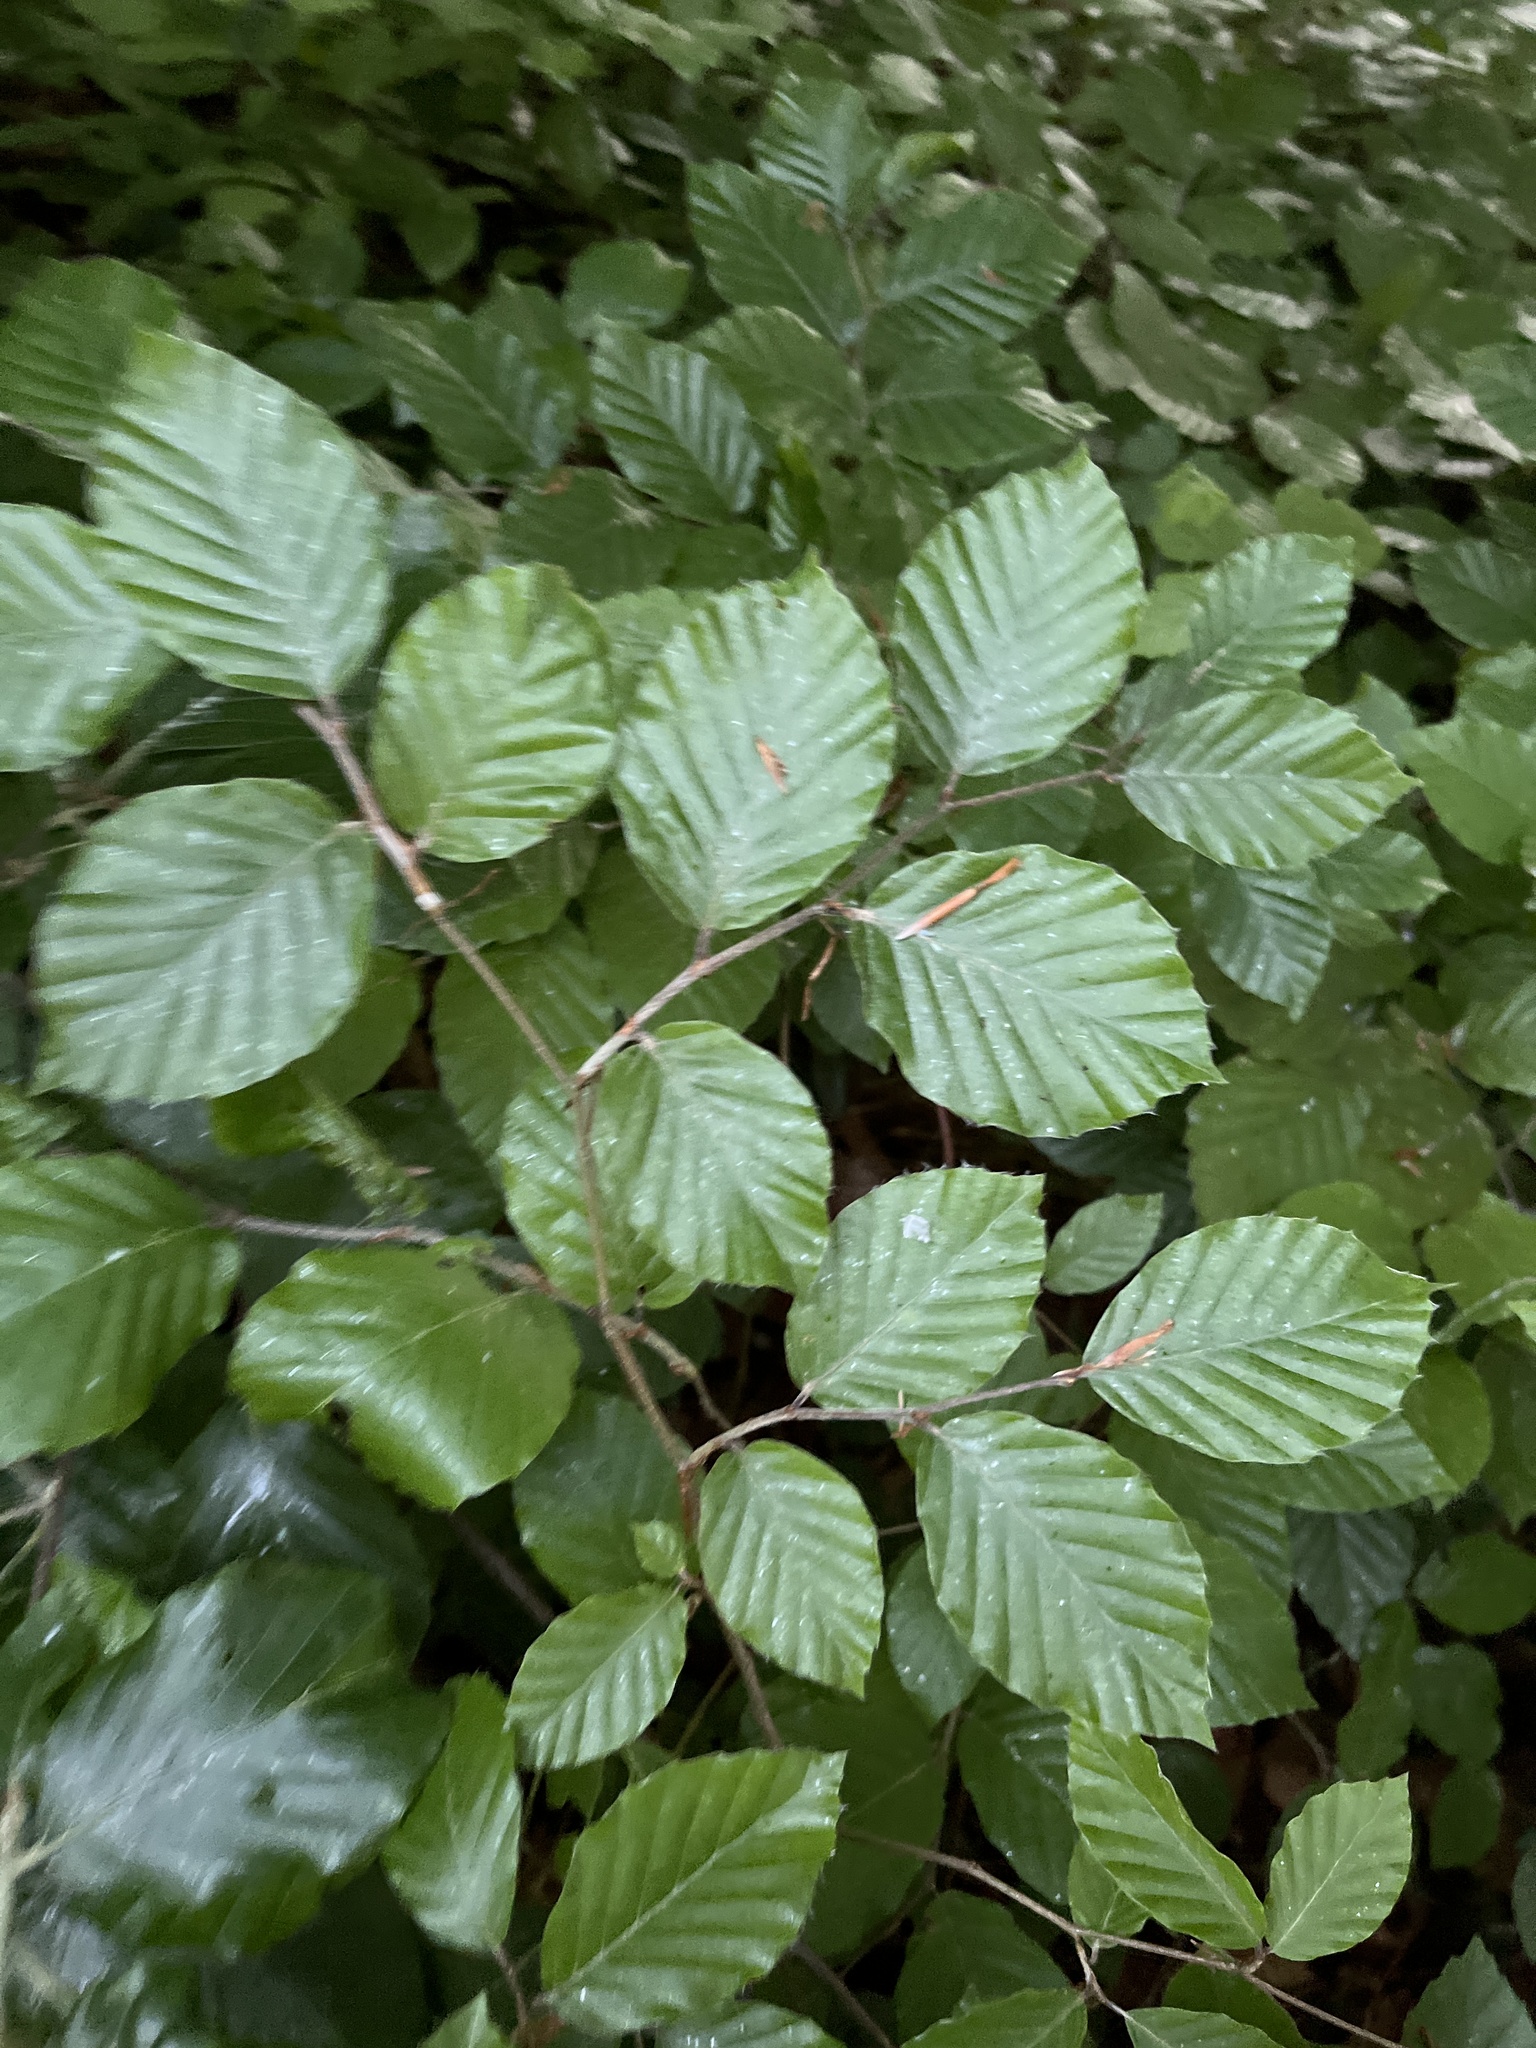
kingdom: Plantae
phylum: Tracheophyta
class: Magnoliopsida
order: Fagales
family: Fagaceae
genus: Fagus
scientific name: Fagus sylvatica
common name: Beech
